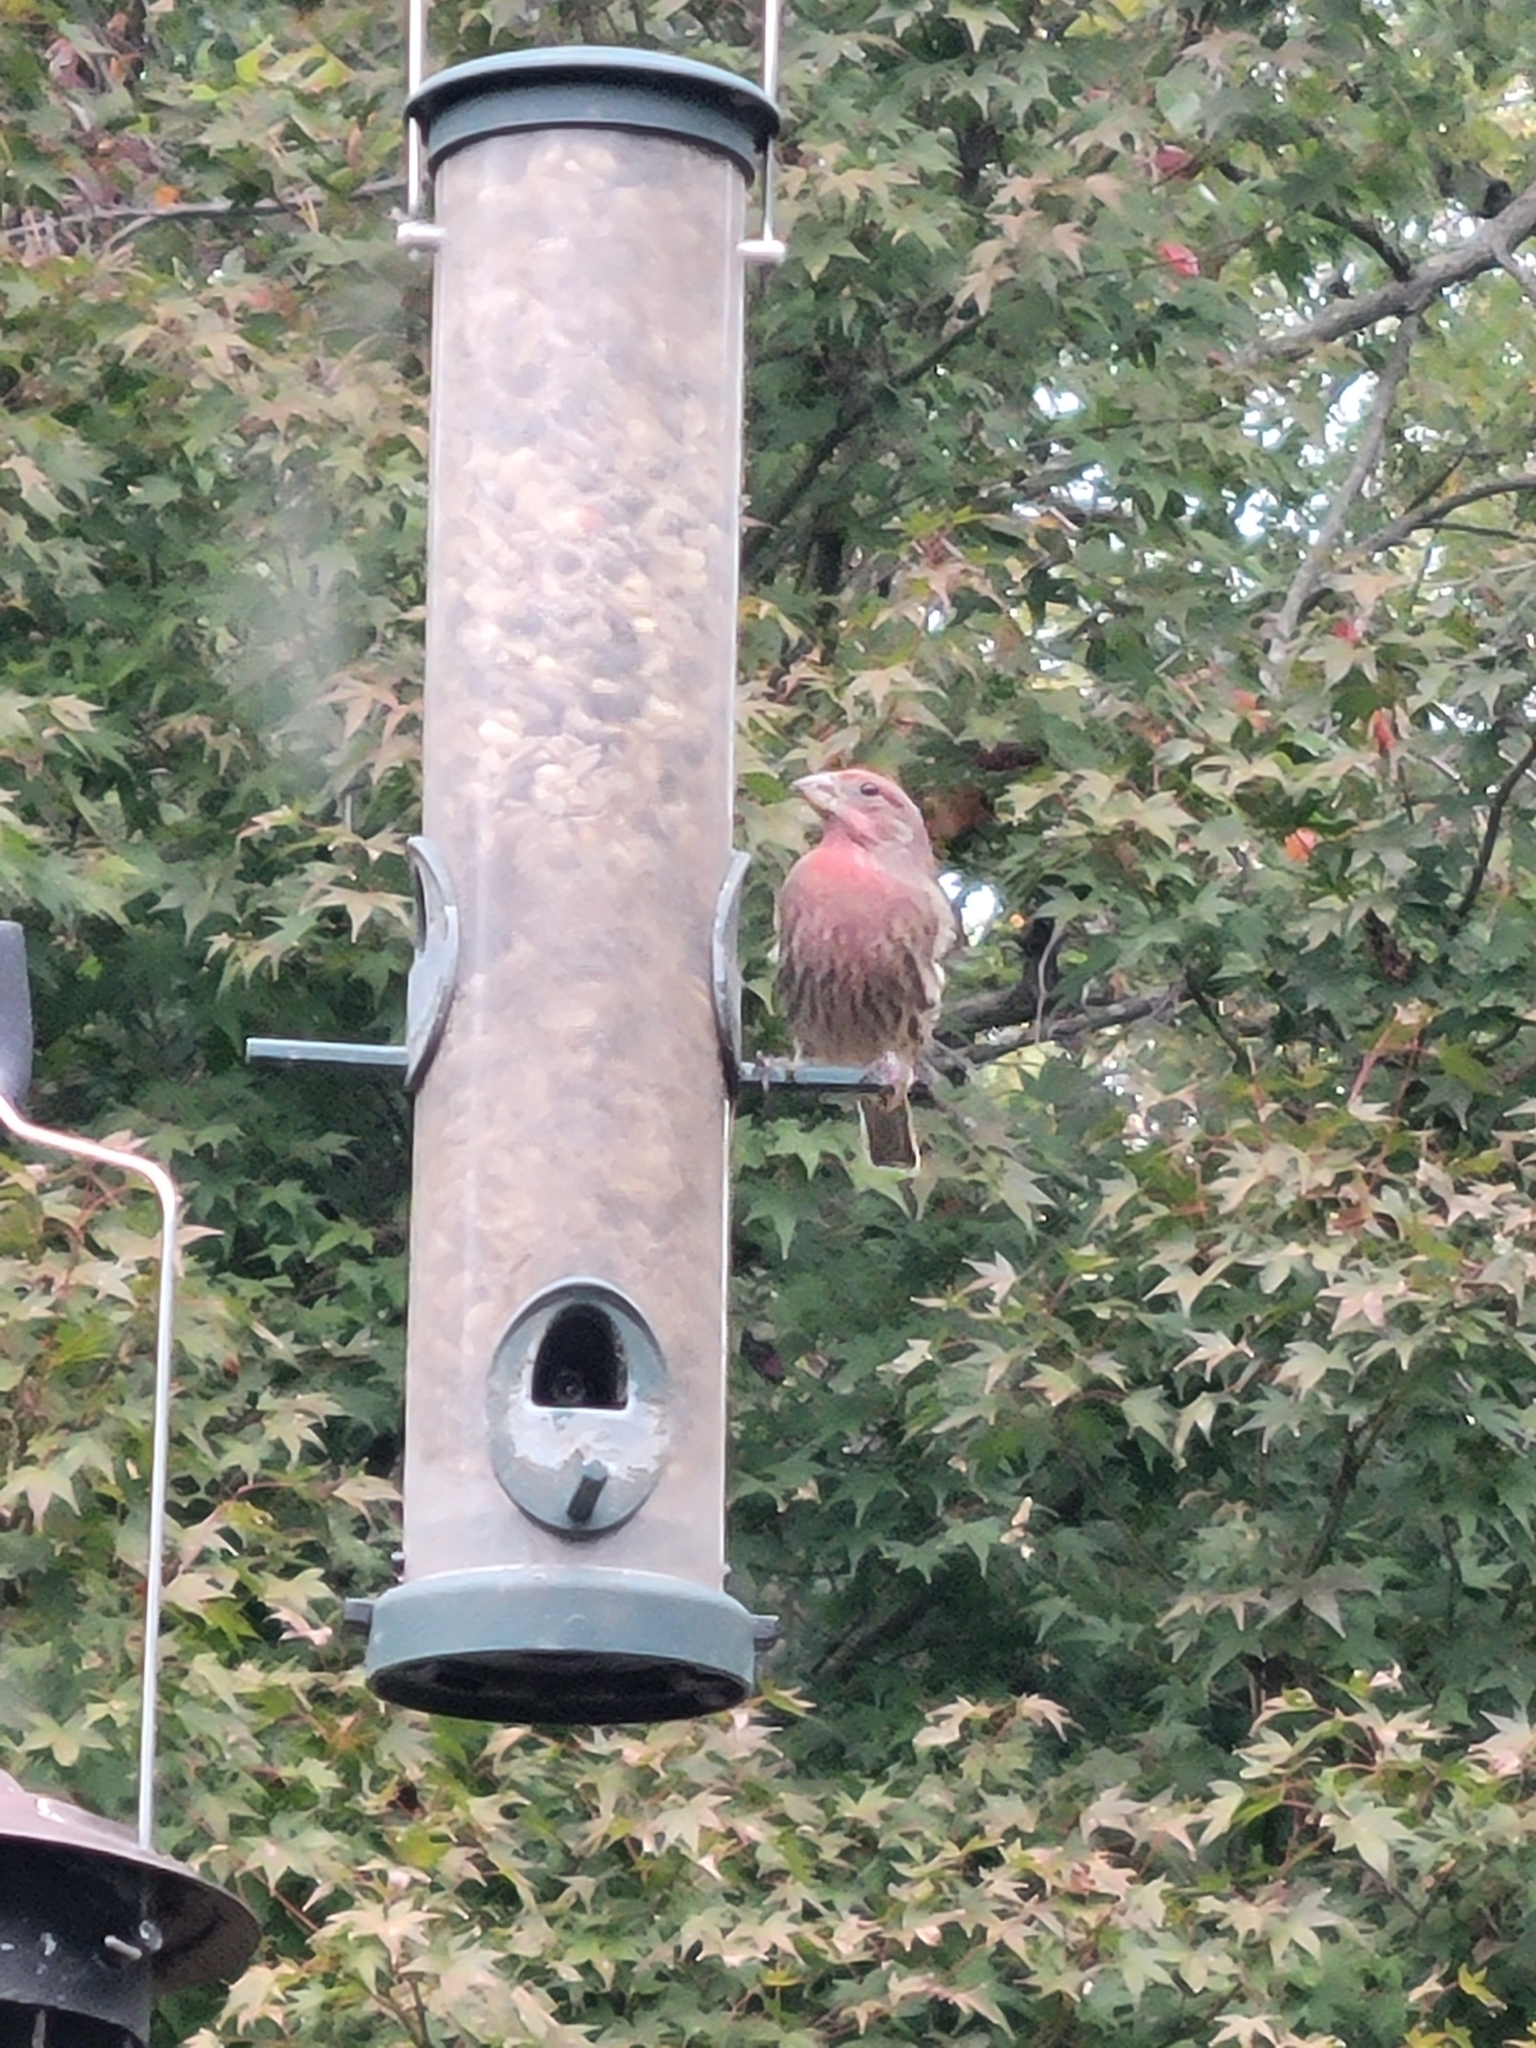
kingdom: Animalia
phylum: Chordata
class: Aves
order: Passeriformes
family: Fringillidae
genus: Haemorhous
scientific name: Haemorhous mexicanus
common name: House finch
